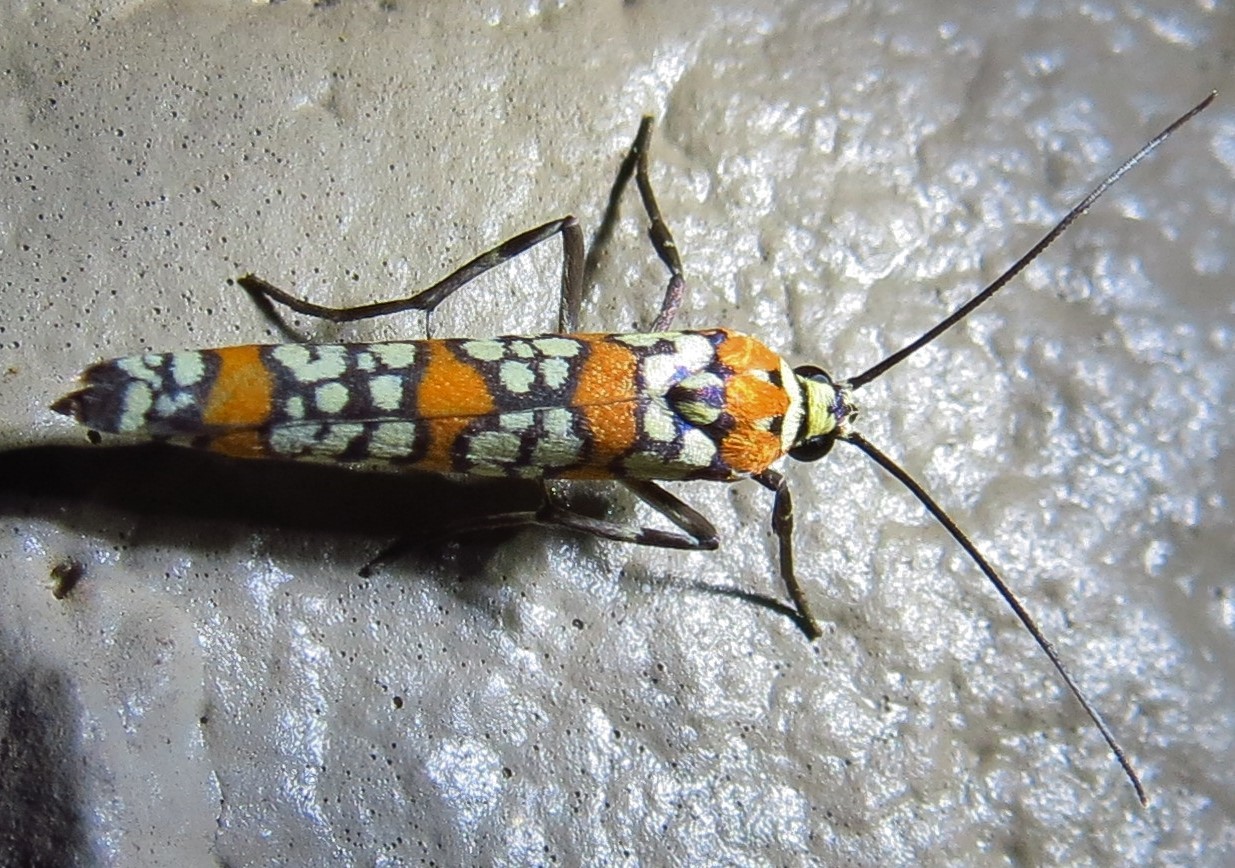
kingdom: Animalia
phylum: Arthropoda
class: Insecta
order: Lepidoptera
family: Attevidae
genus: Atteva
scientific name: Atteva punctella
